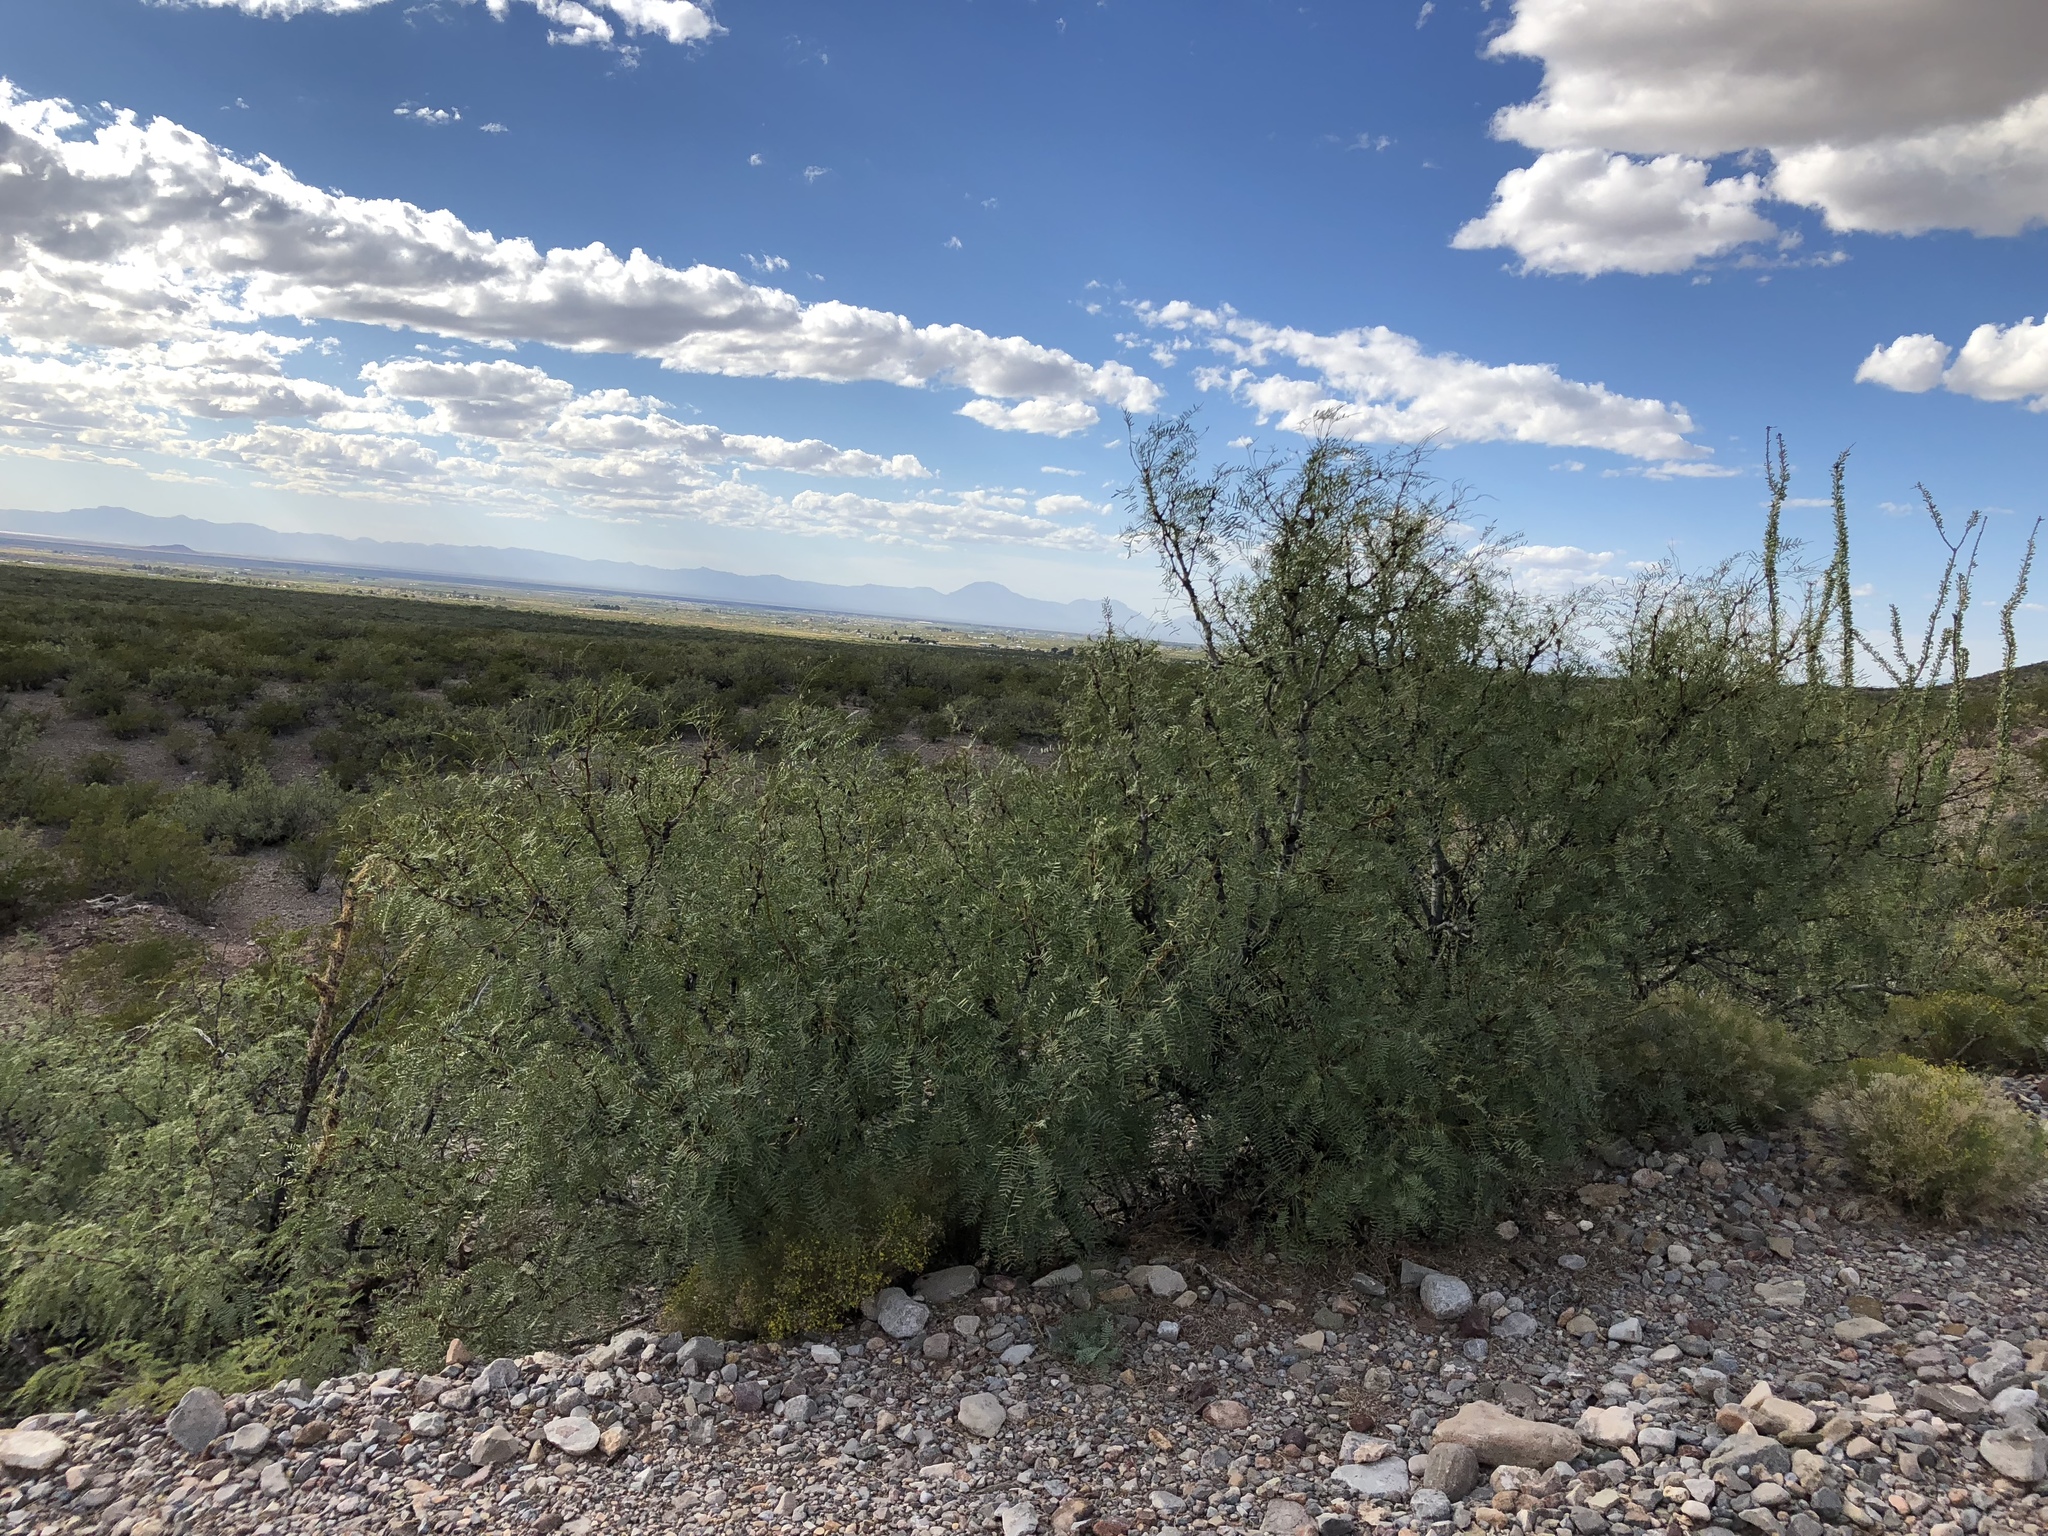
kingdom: Plantae
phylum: Tracheophyta
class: Magnoliopsida
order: Fabales
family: Fabaceae
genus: Prosopis
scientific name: Prosopis glandulosa
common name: Honey mesquite
